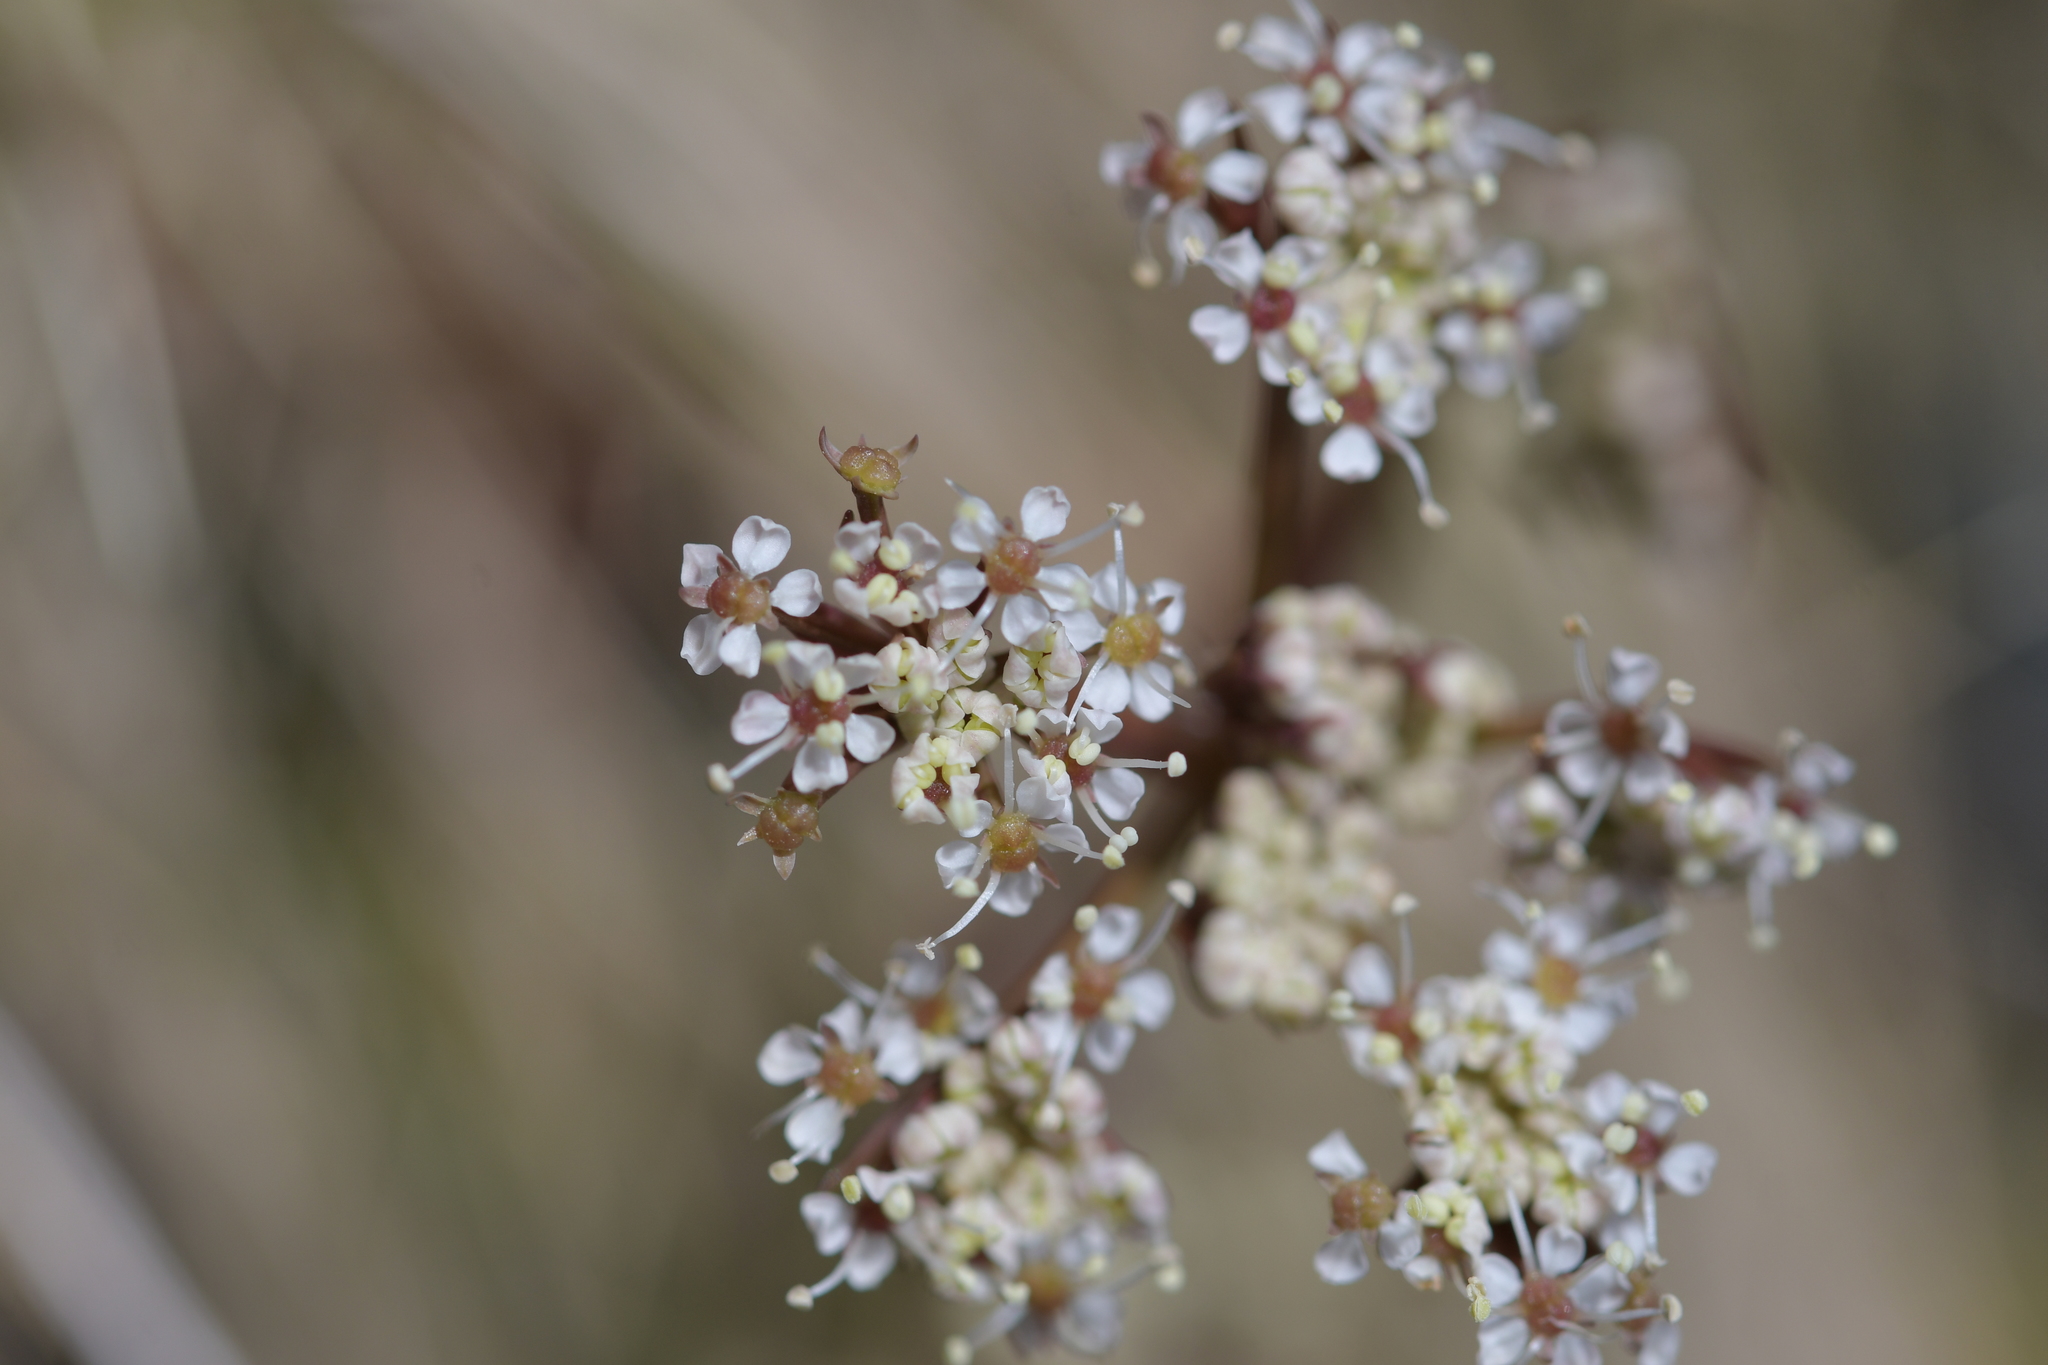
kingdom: Plantae
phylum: Tracheophyta
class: Magnoliopsida
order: Apiales
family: Apiaceae
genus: Anisotome
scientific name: Anisotome aromatica
